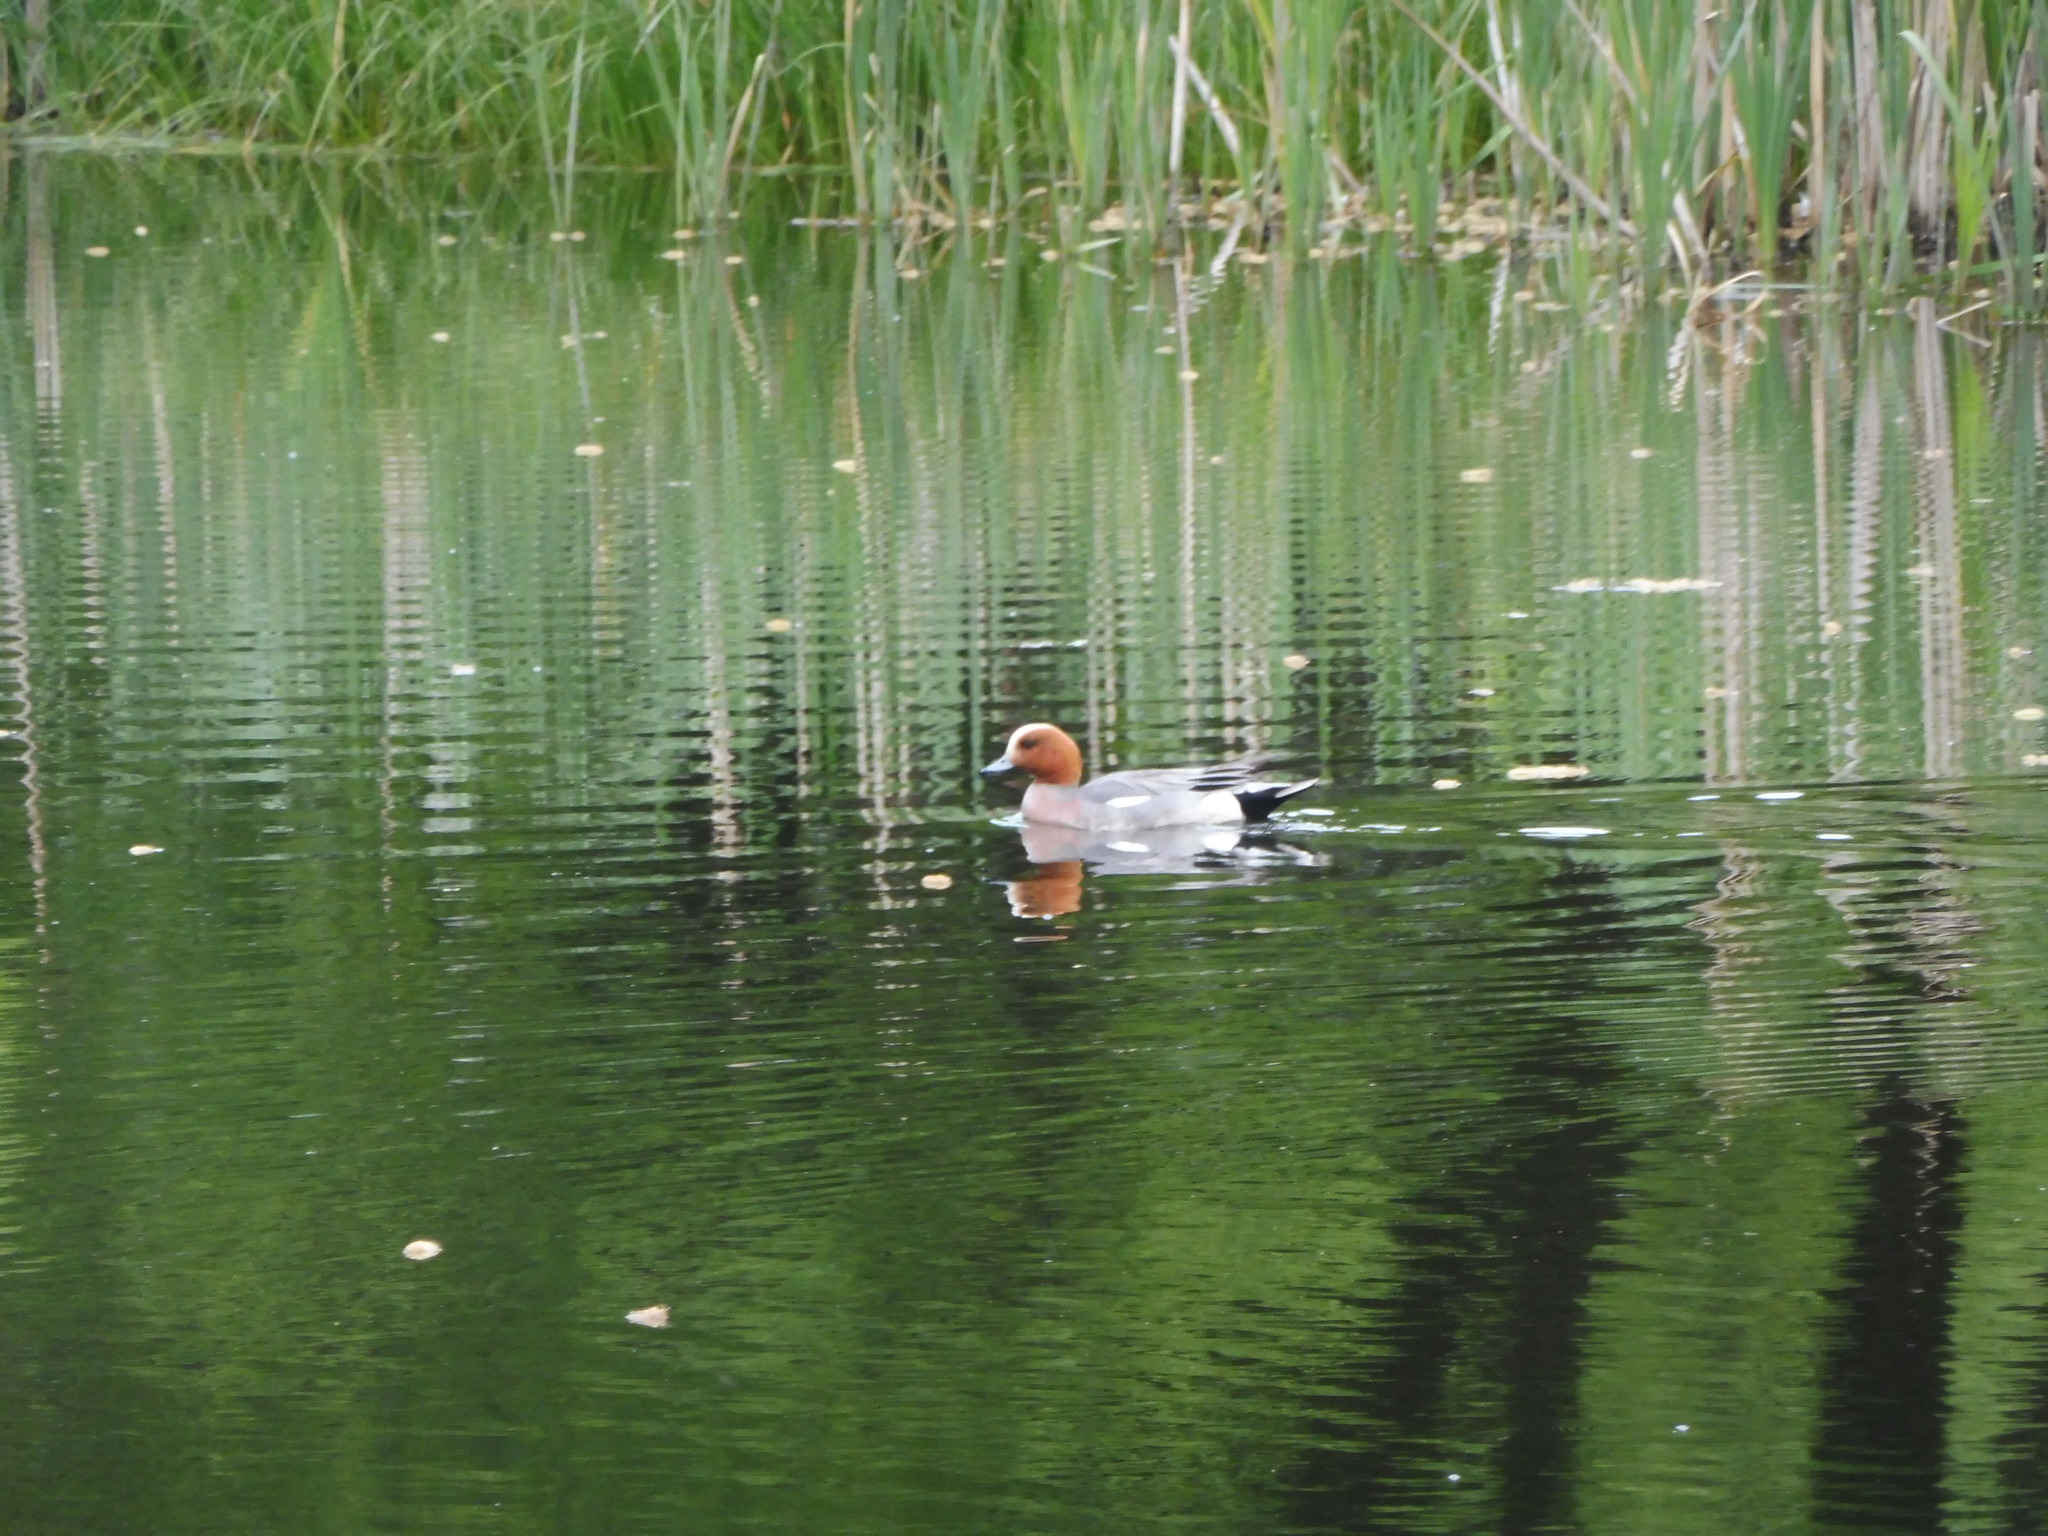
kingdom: Animalia
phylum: Chordata
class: Aves
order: Anseriformes
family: Anatidae
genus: Mareca
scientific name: Mareca penelope
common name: Eurasian wigeon
